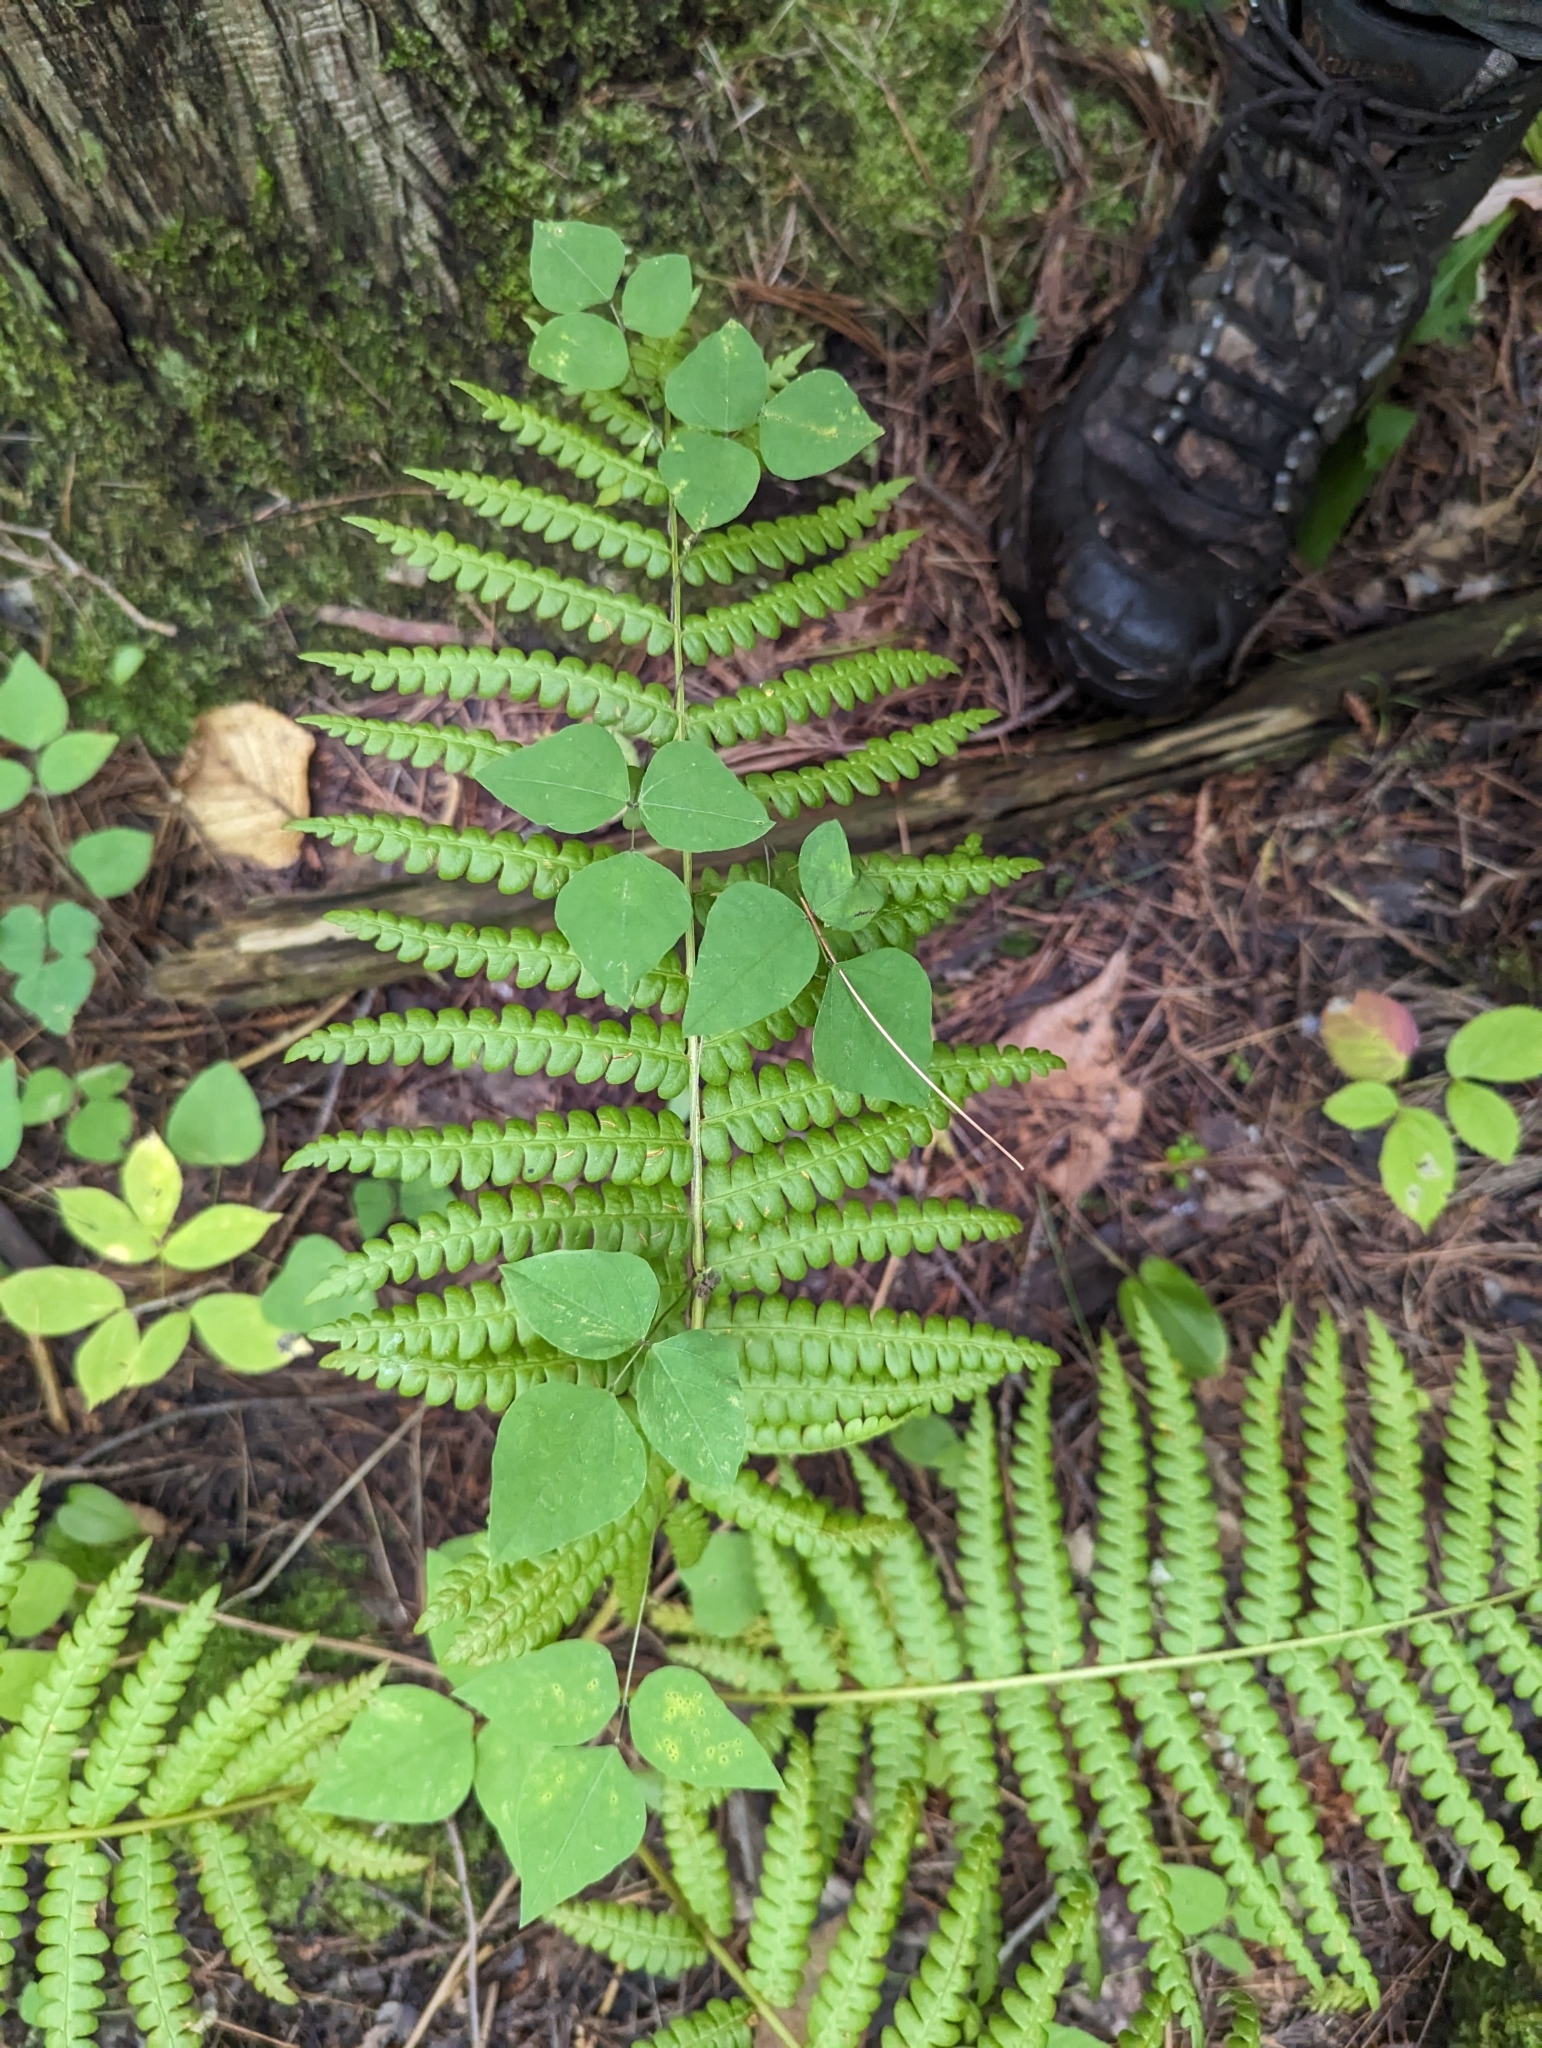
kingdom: Plantae
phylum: Tracheophyta
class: Magnoliopsida
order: Fabales
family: Fabaceae
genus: Amphicarpaea
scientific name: Amphicarpaea bracteata
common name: American hog peanut
